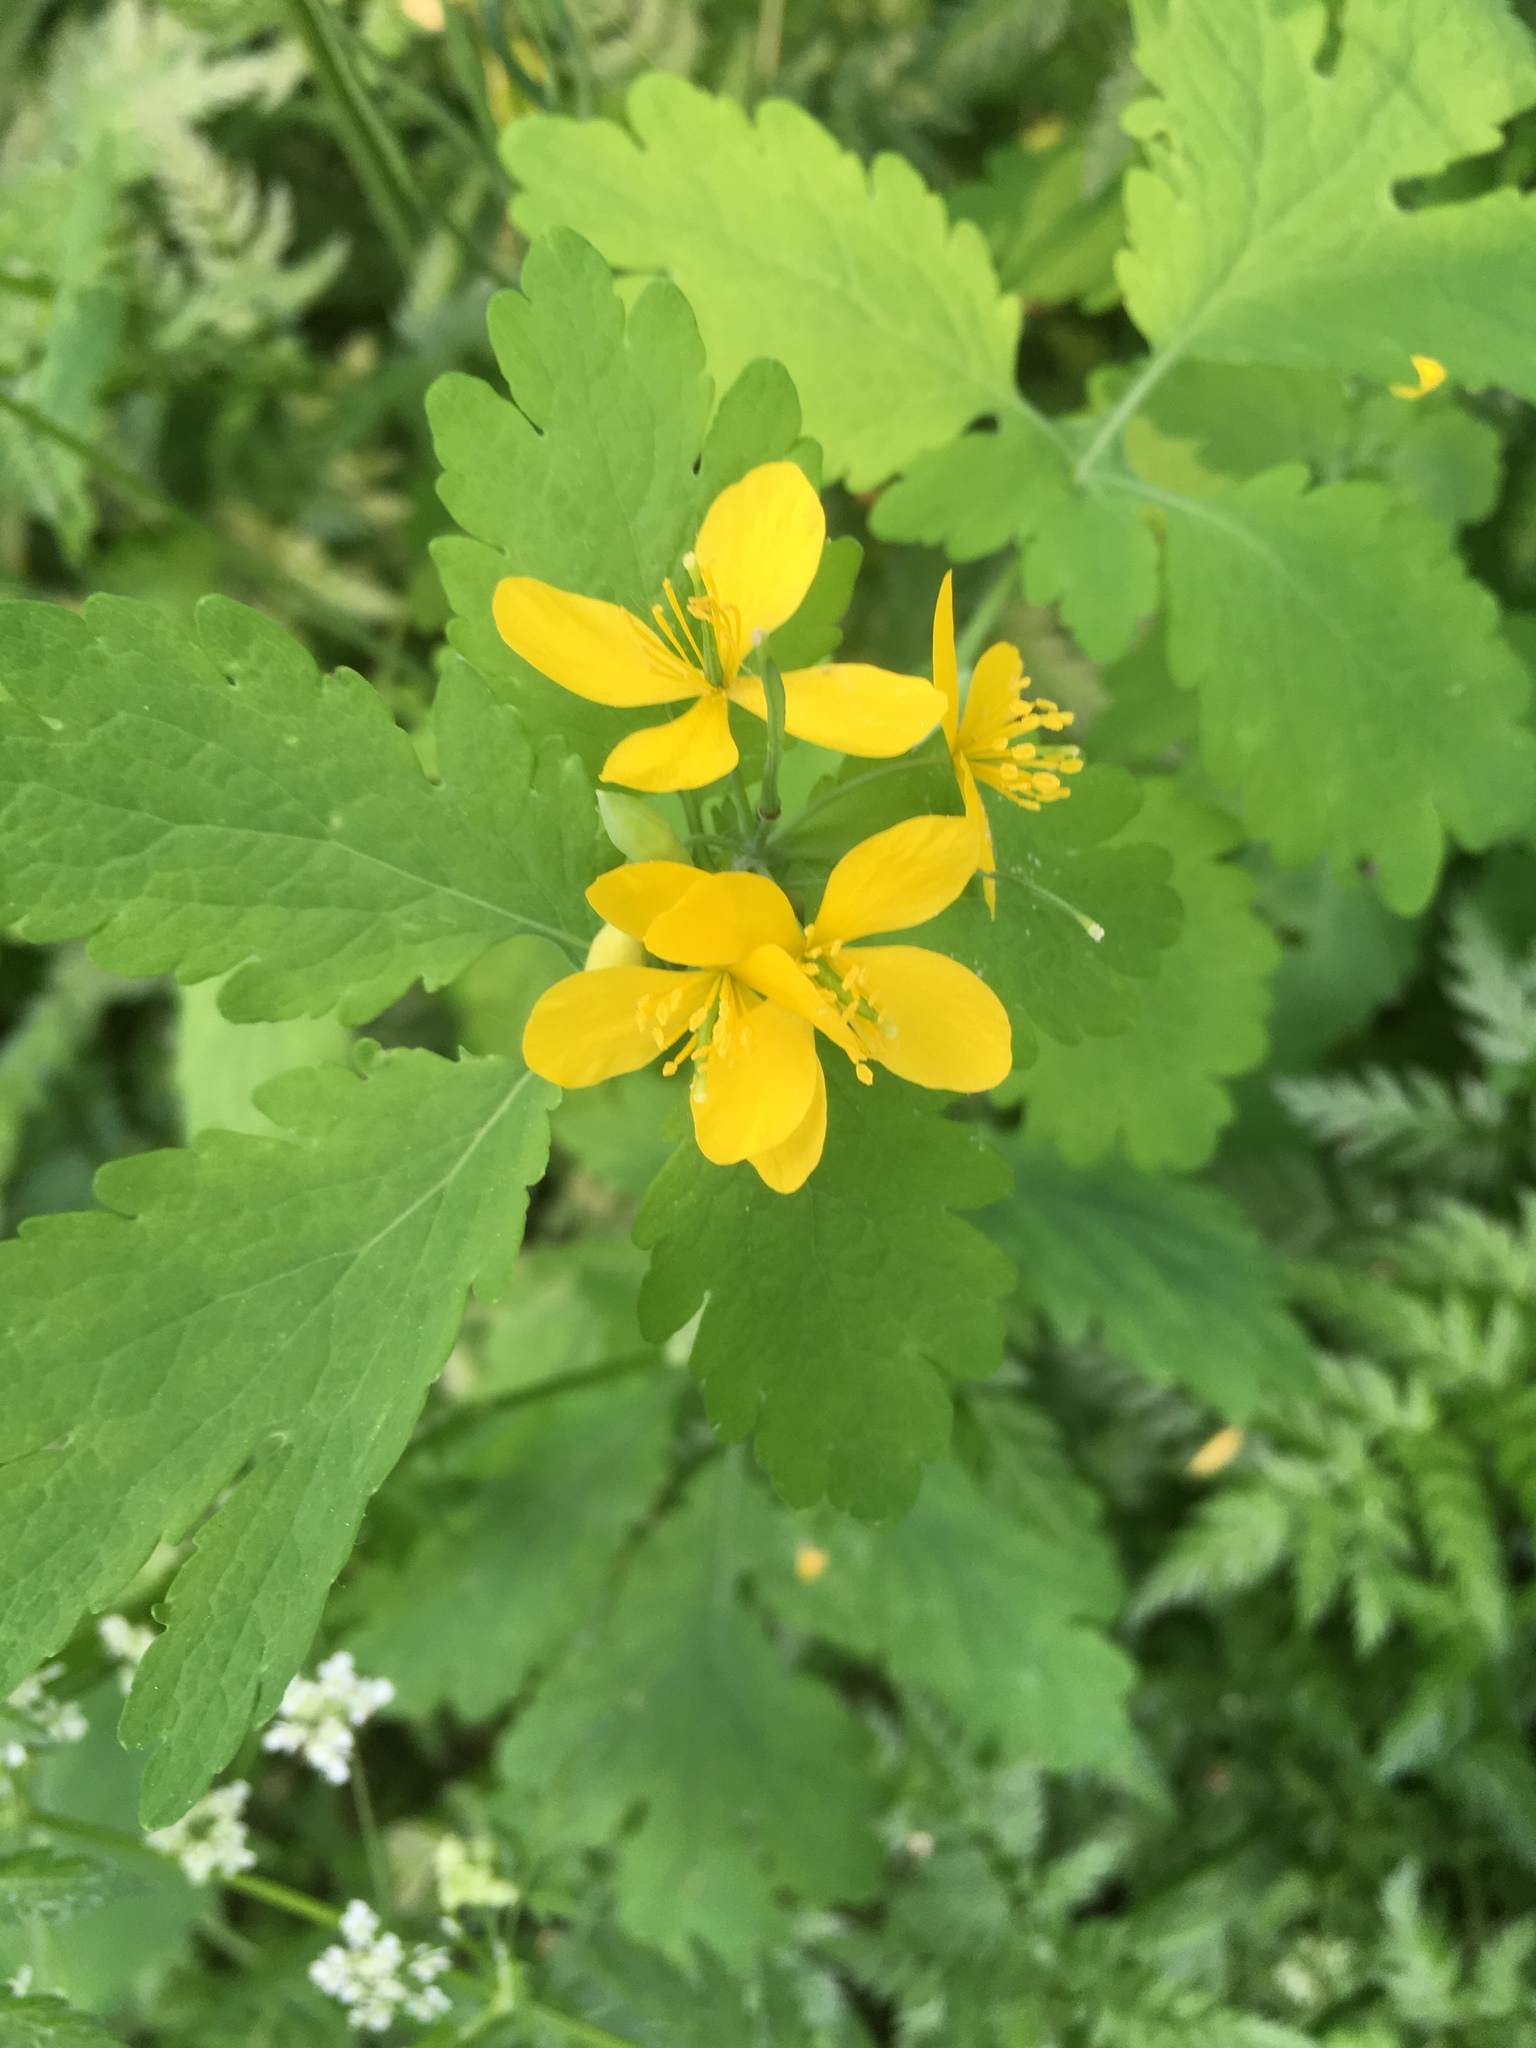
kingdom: Plantae
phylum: Tracheophyta
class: Magnoliopsida
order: Ranunculales
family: Papaveraceae
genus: Chelidonium
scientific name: Chelidonium majus
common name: Greater celandine
